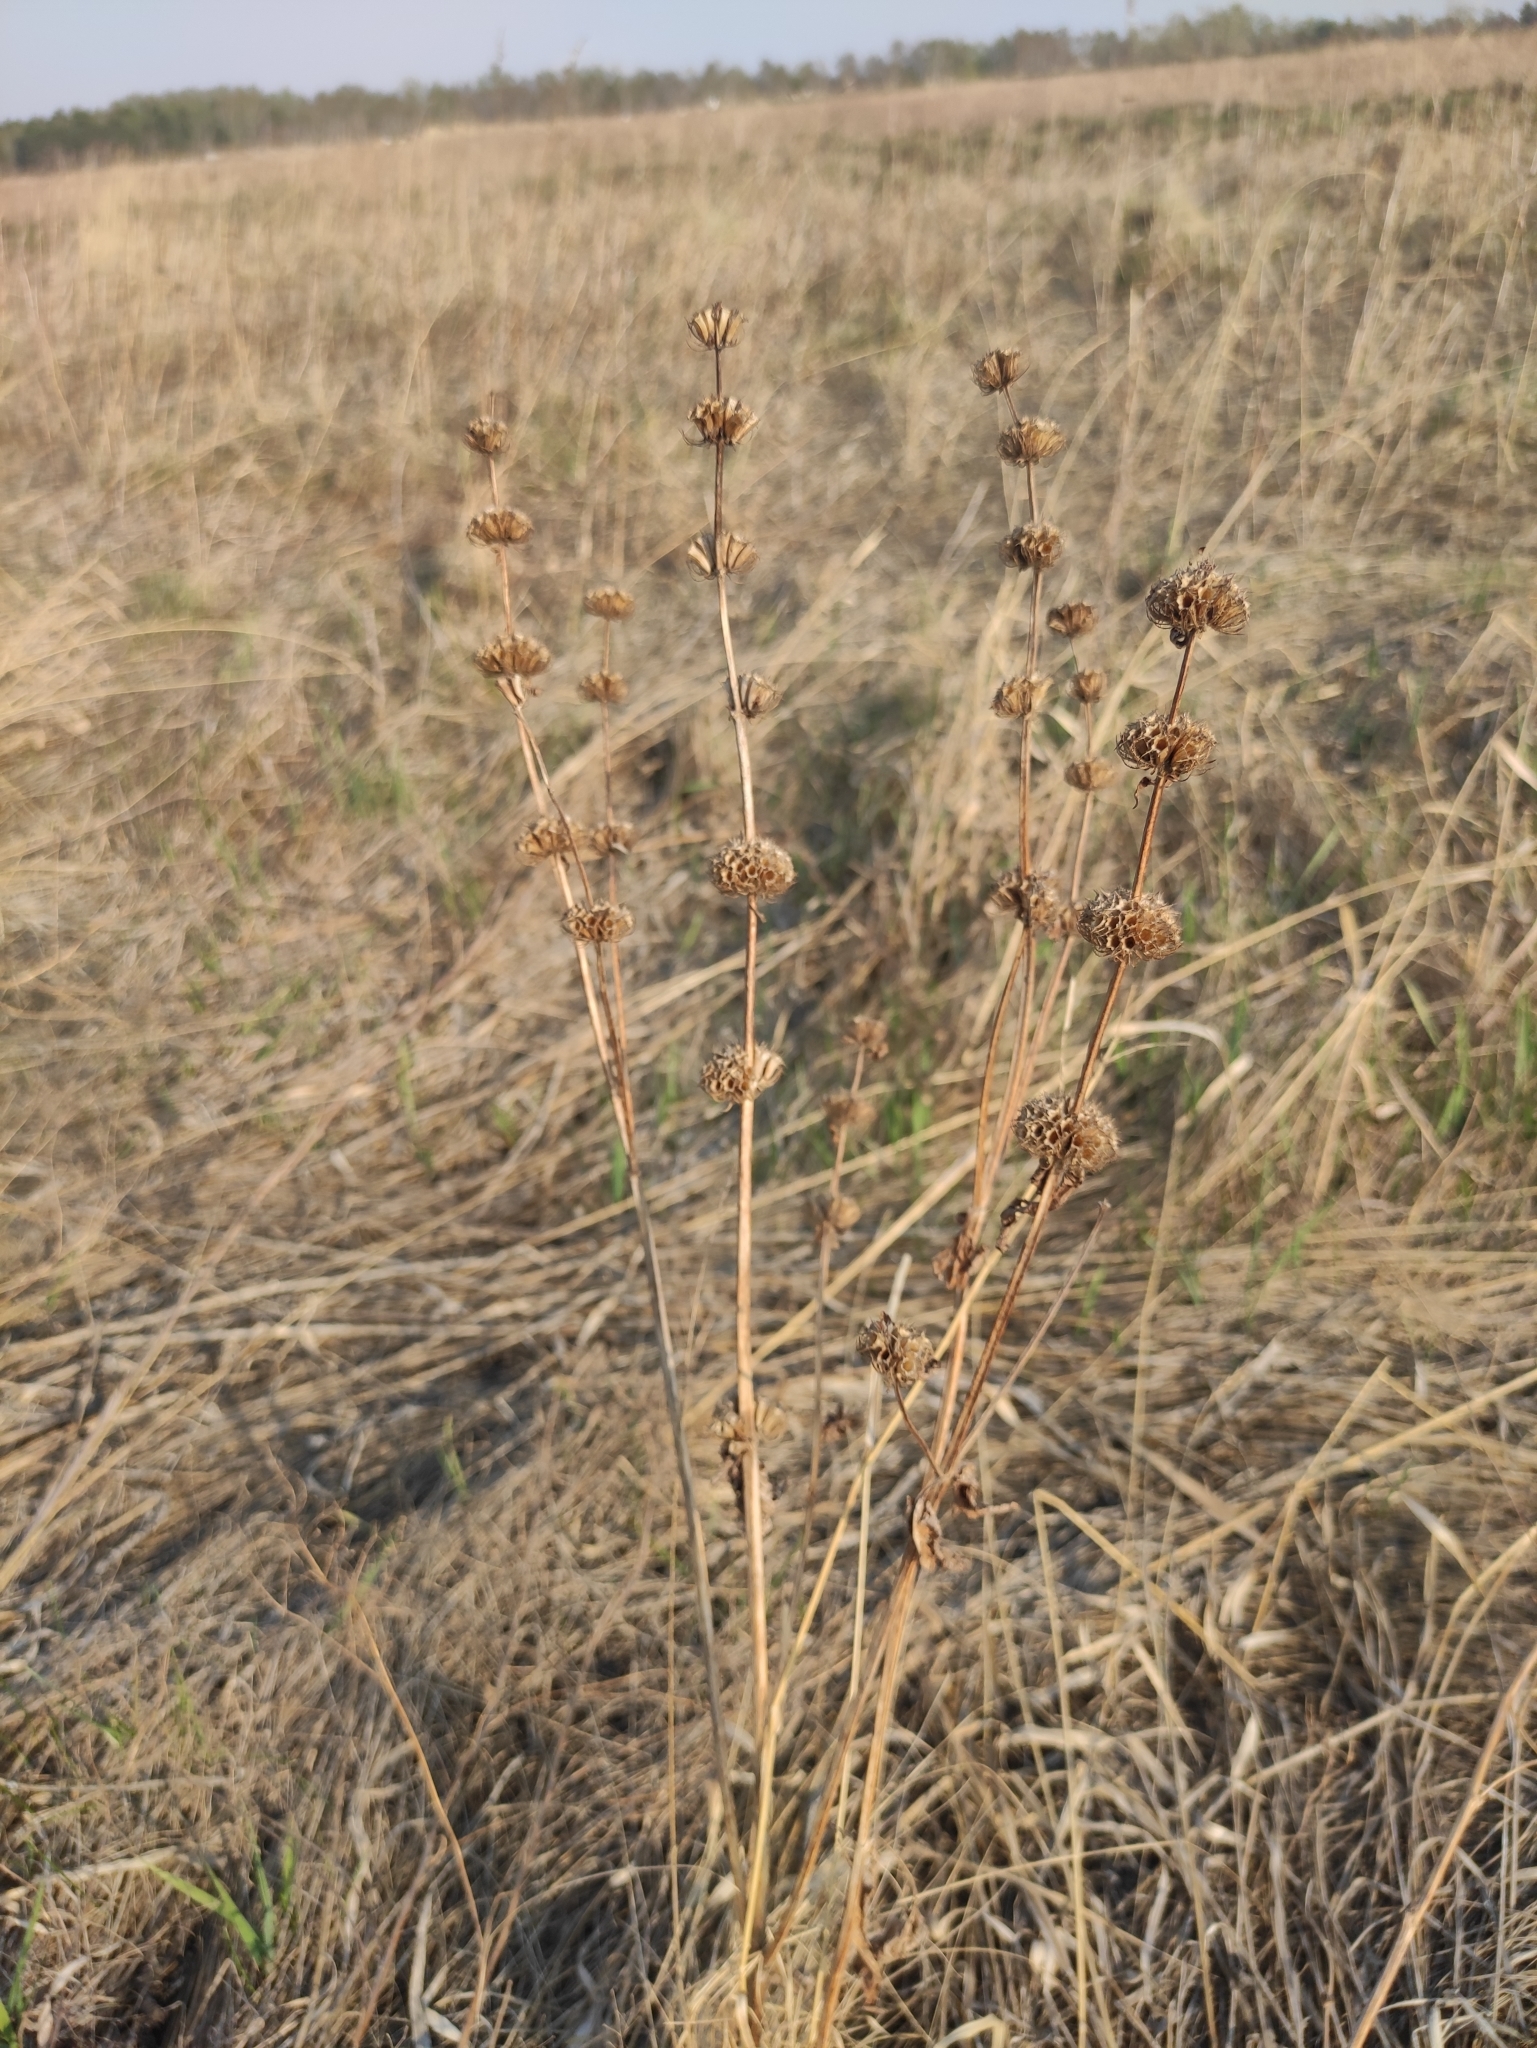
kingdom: Plantae
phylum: Tracheophyta
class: Magnoliopsida
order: Lamiales
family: Lamiaceae
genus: Phlomoides
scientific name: Phlomoides tuberosa
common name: Tuberous jerusalem sage
